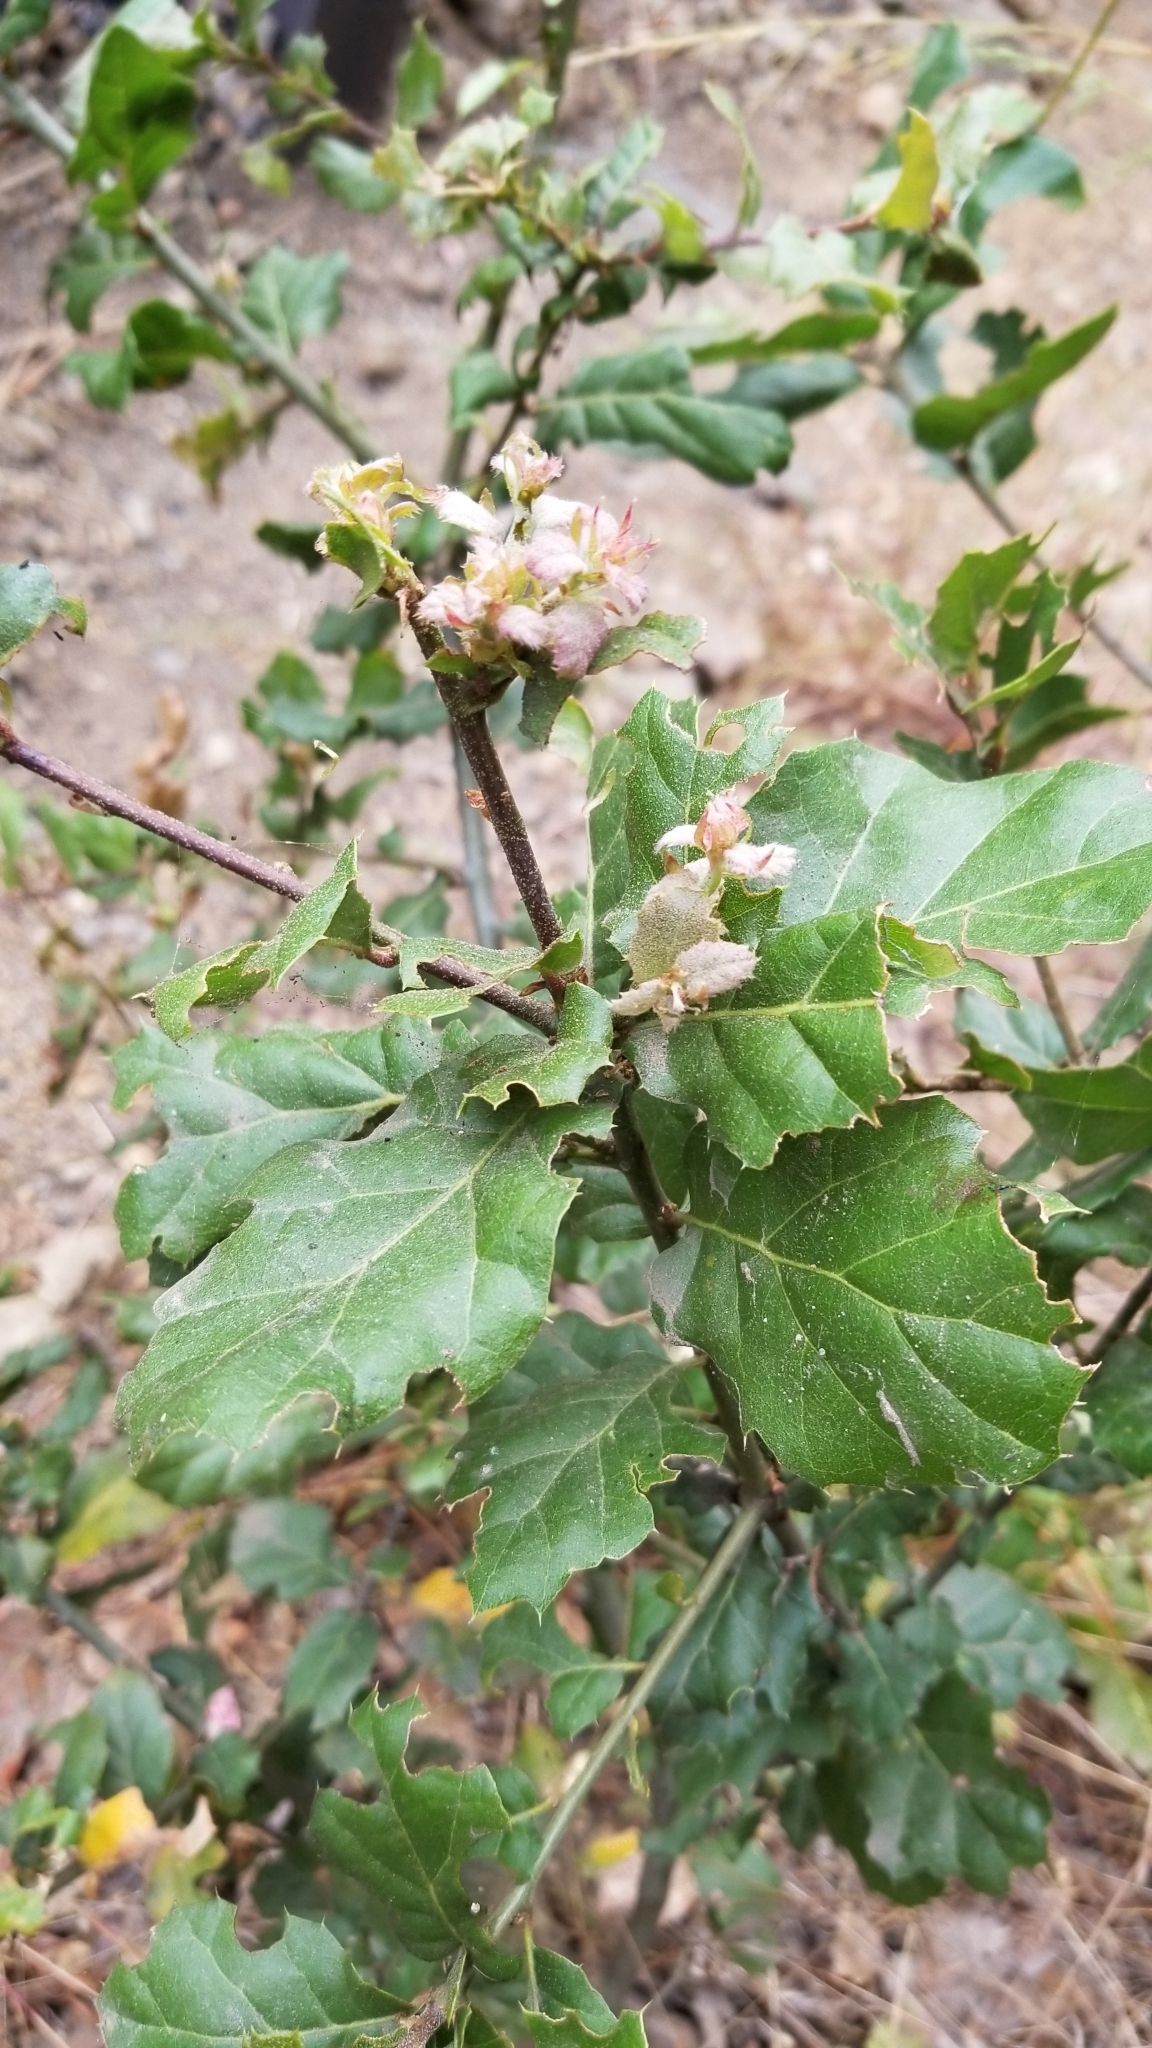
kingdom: Plantae
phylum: Tracheophyta
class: Magnoliopsida
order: Fagales
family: Fagaceae
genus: Quercus
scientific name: Quercus agrifolia
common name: California live oak
